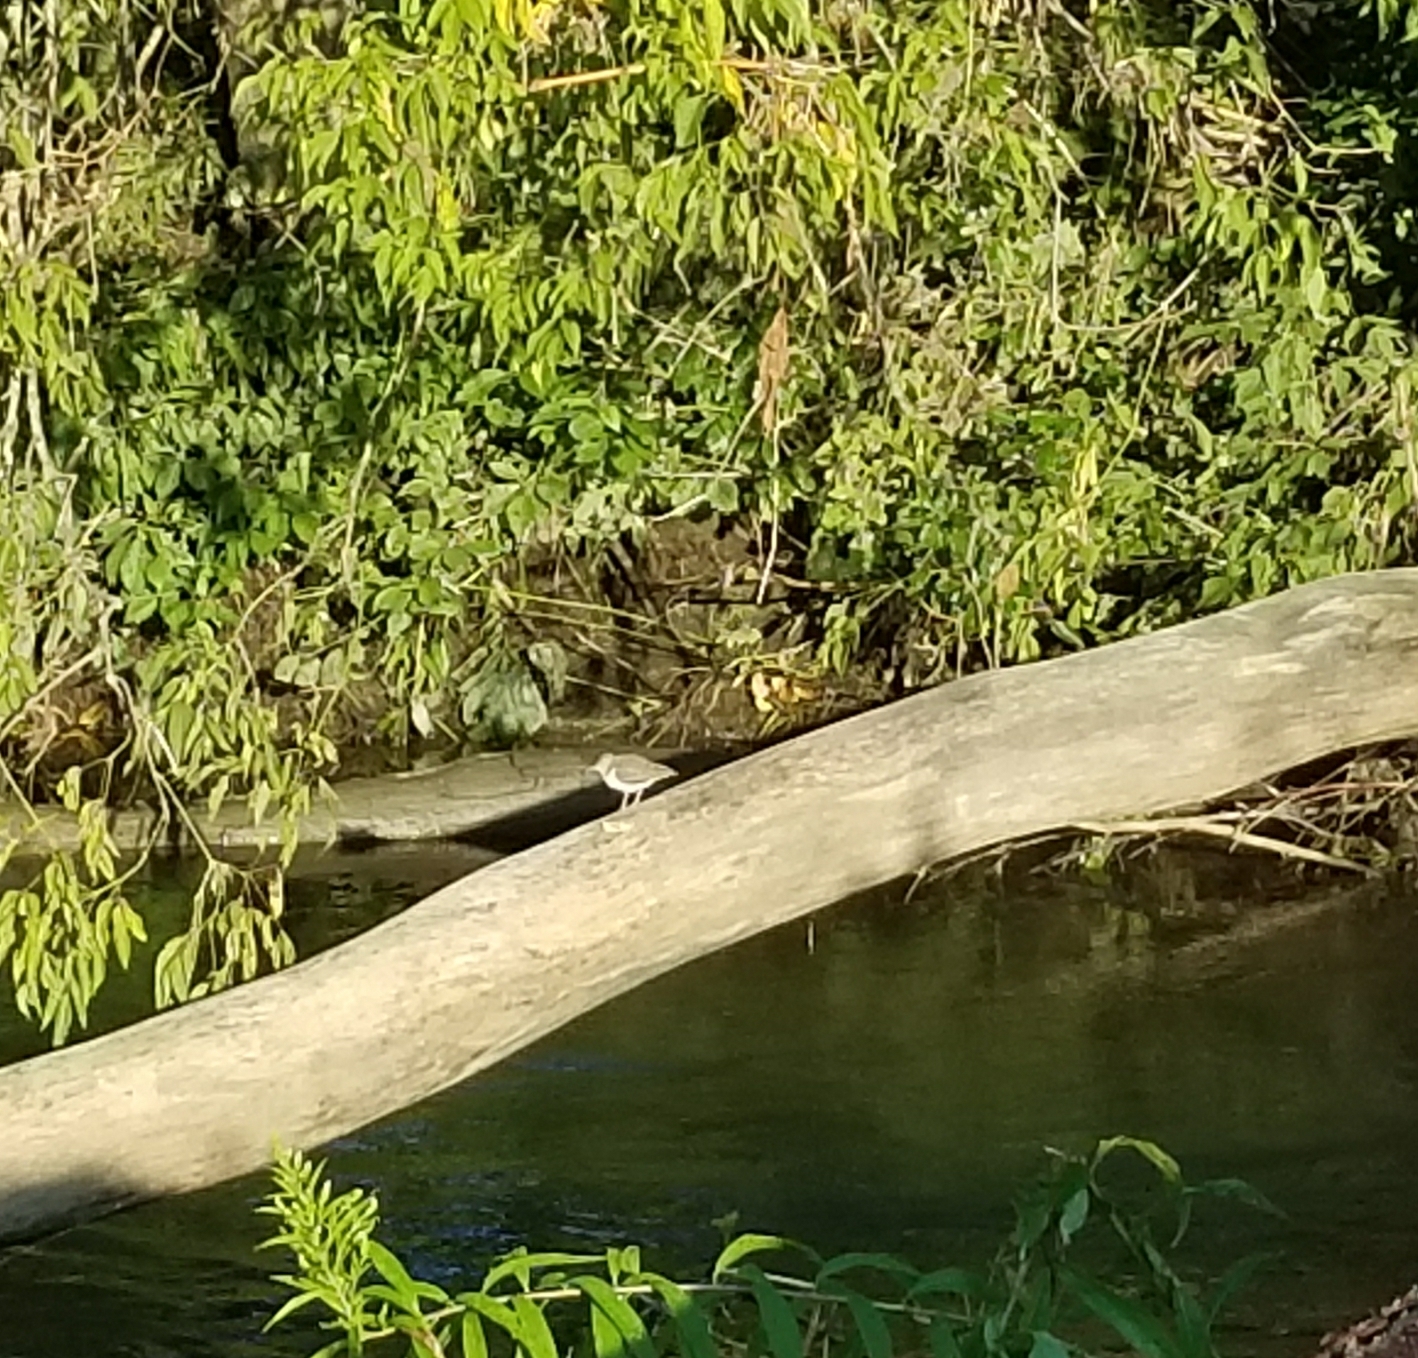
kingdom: Animalia
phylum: Chordata
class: Aves
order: Charadriiformes
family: Scolopacidae
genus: Actitis
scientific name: Actitis macularius
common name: Spotted sandpiper
